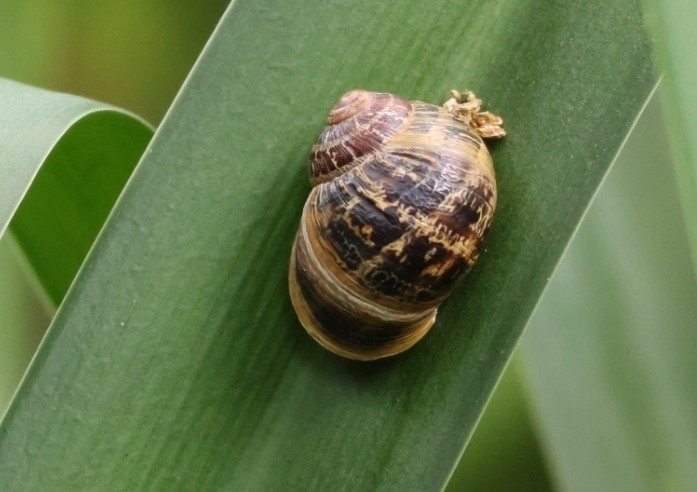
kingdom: Animalia
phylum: Mollusca
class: Gastropoda
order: Stylommatophora
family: Helicidae
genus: Cornu
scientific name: Cornu aspersum
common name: Brown garden snail
